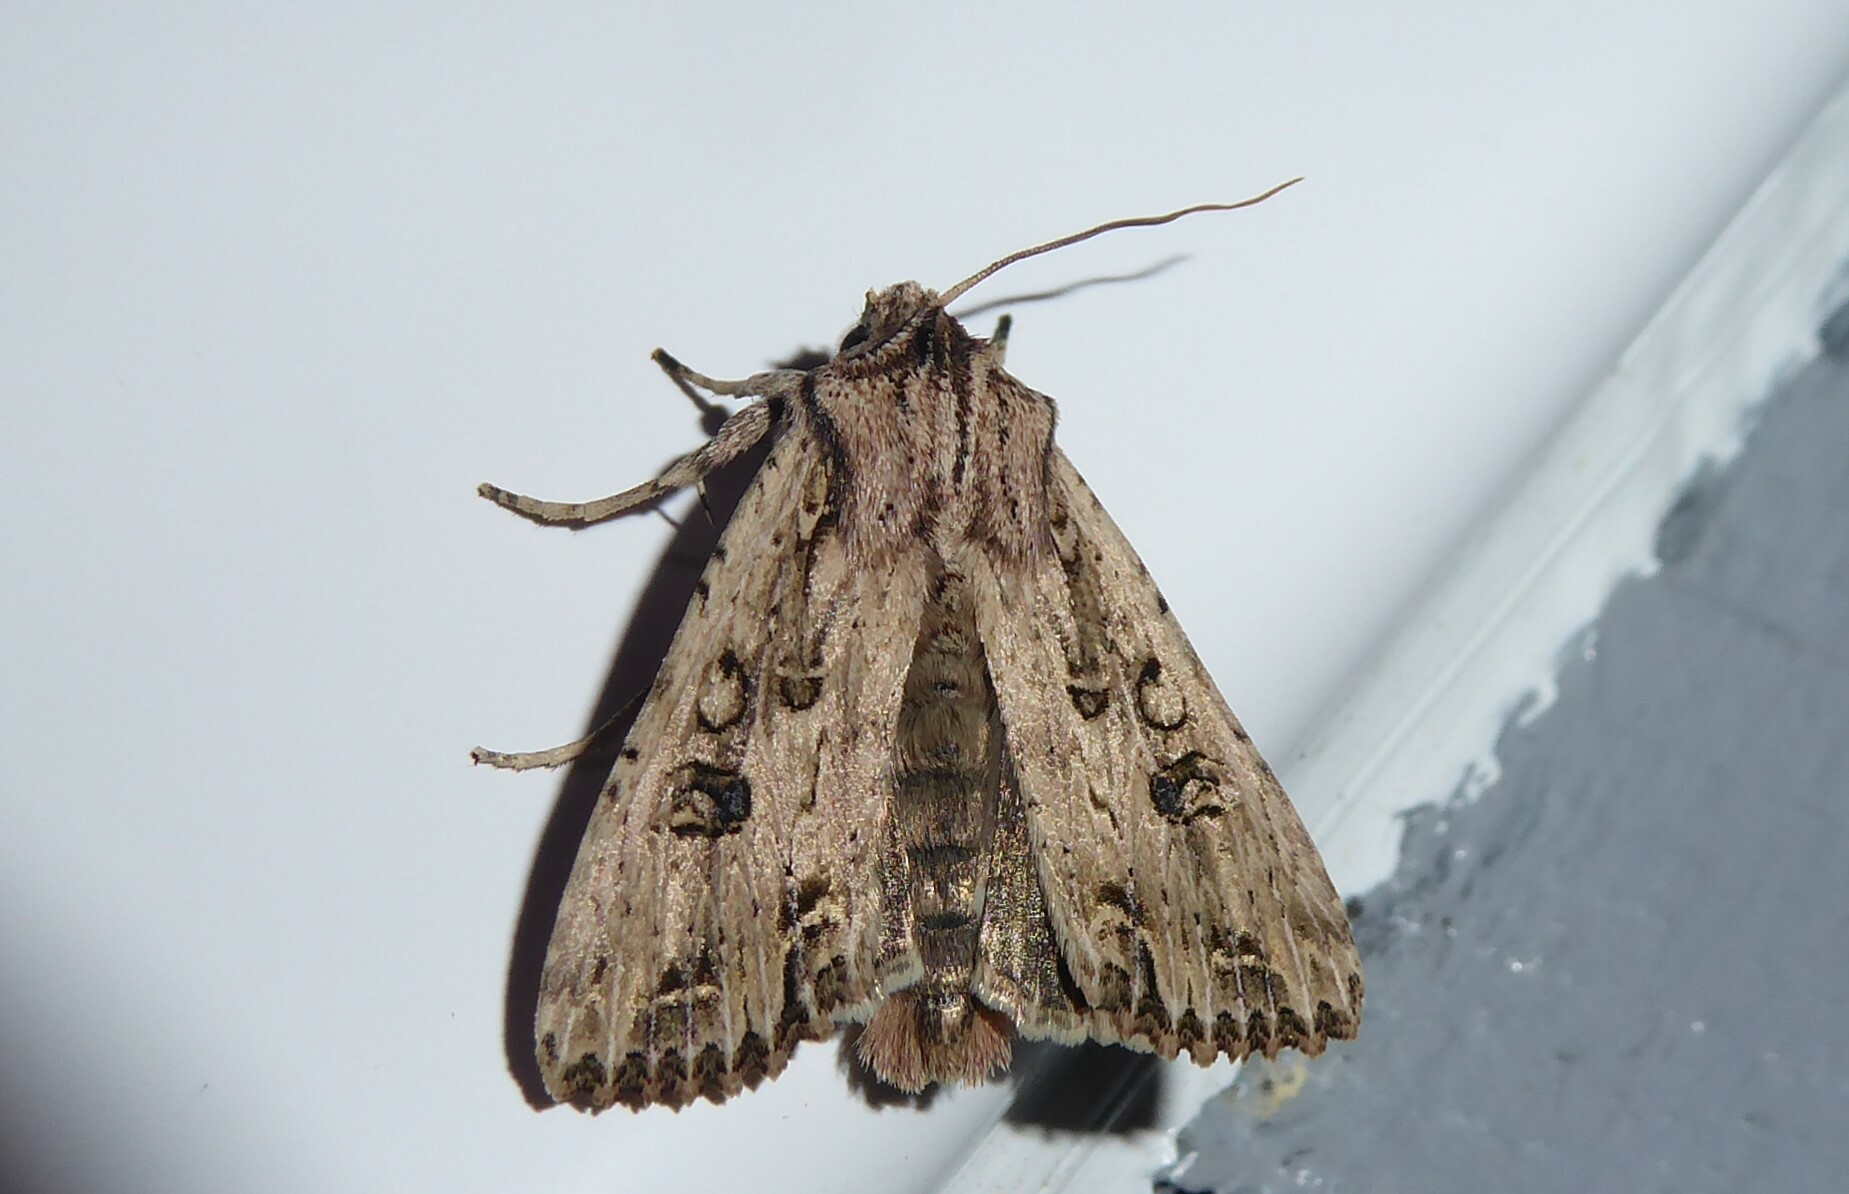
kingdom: Animalia
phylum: Arthropoda
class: Insecta
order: Lepidoptera
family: Noctuidae
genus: Ichneutica
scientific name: Ichneutica lignana
